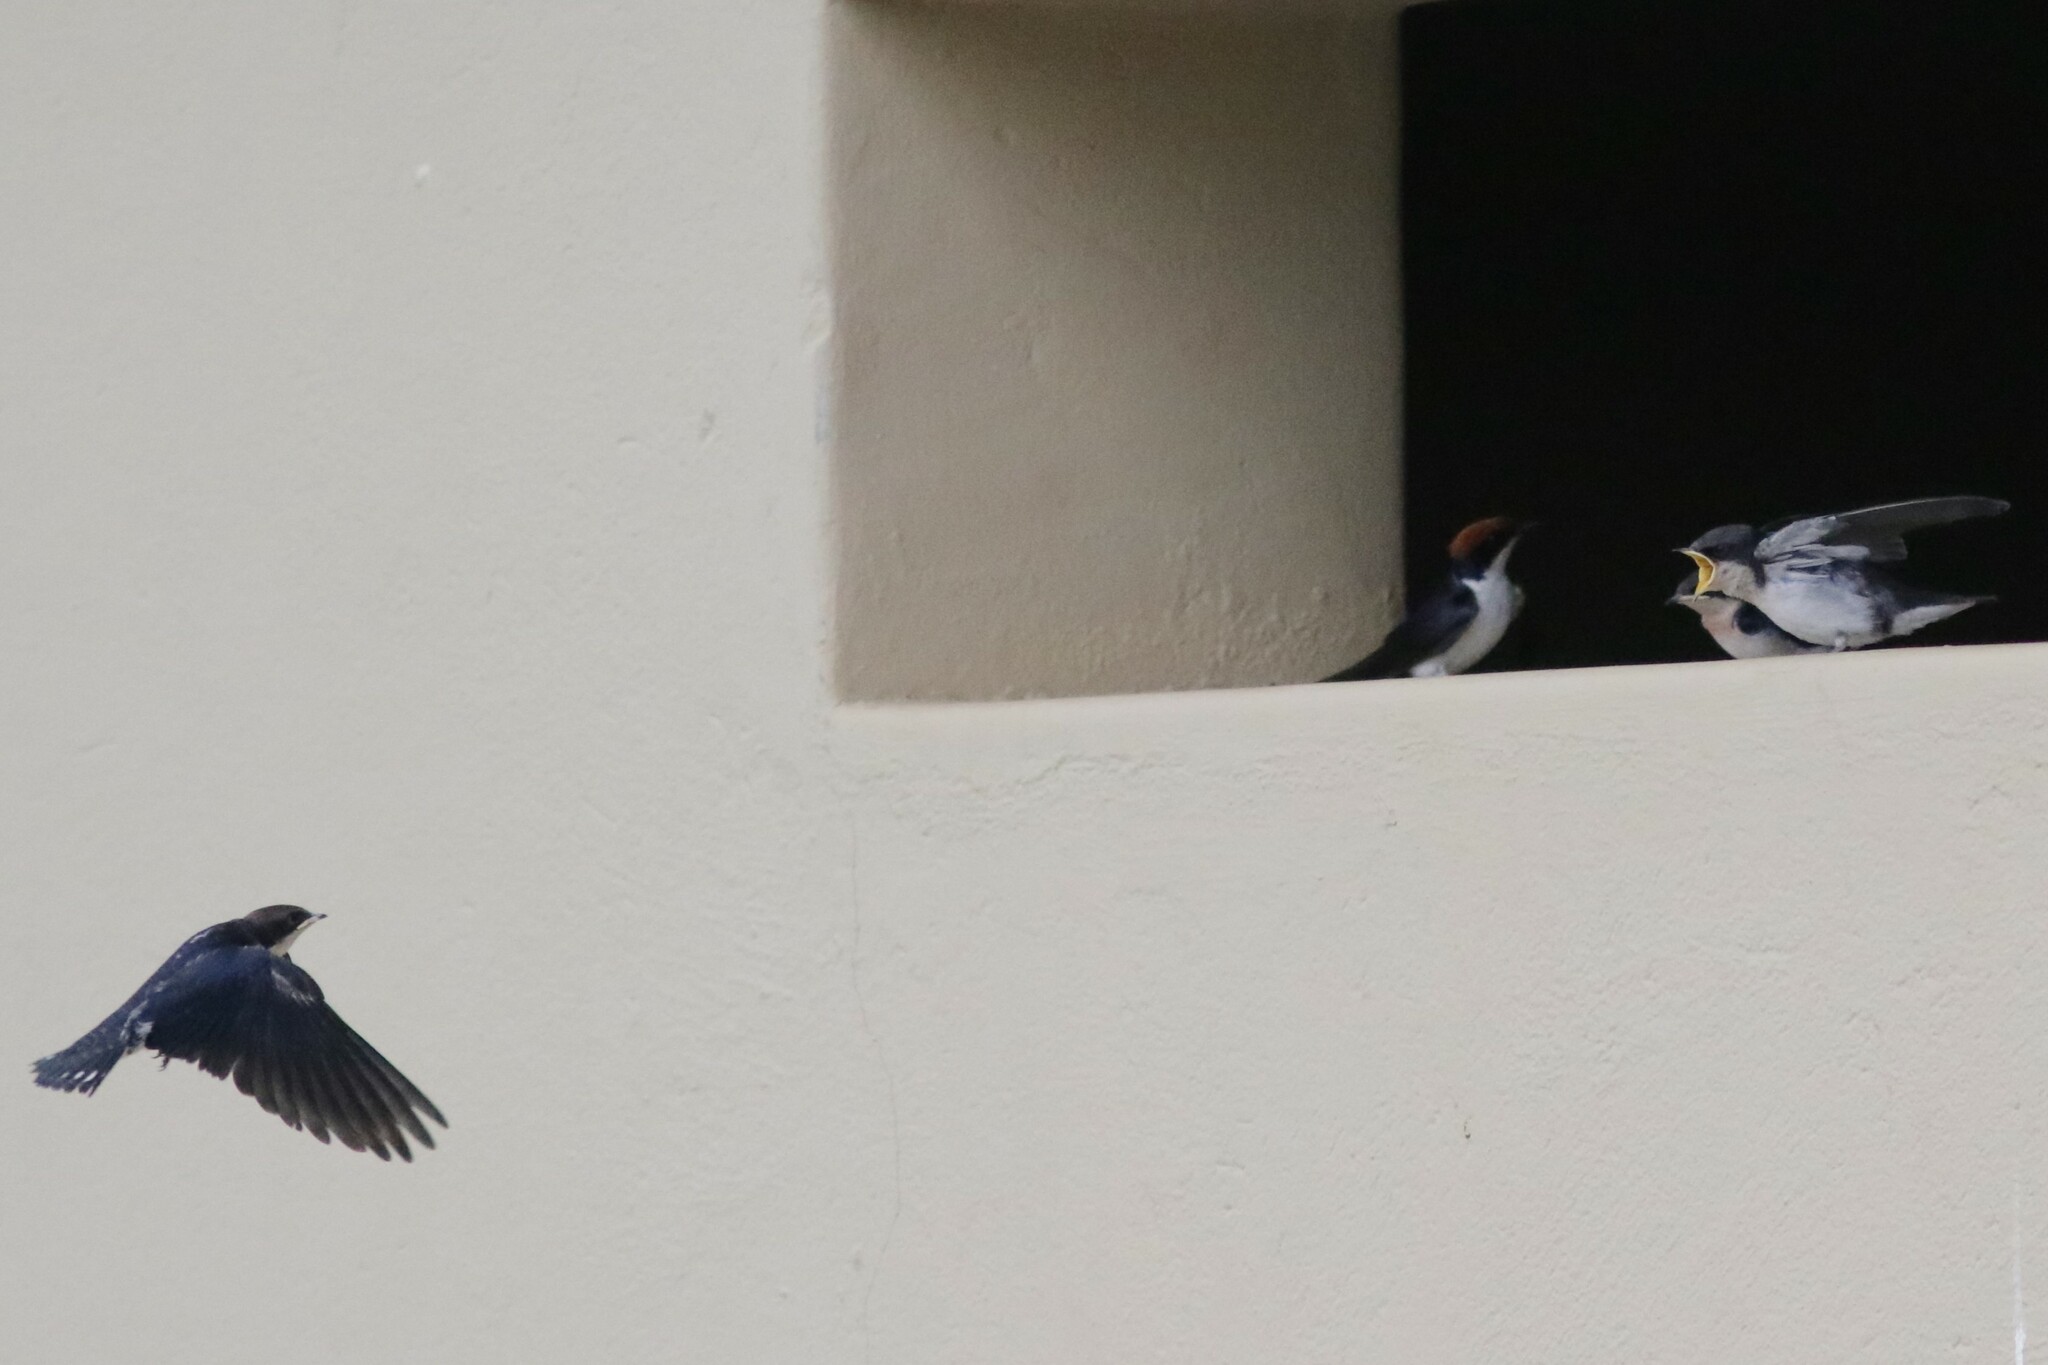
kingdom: Animalia
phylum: Chordata
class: Aves
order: Passeriformes
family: Hirundinidae
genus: Hirundo
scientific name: Hirundo smithii
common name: Wire-tailed swallow
